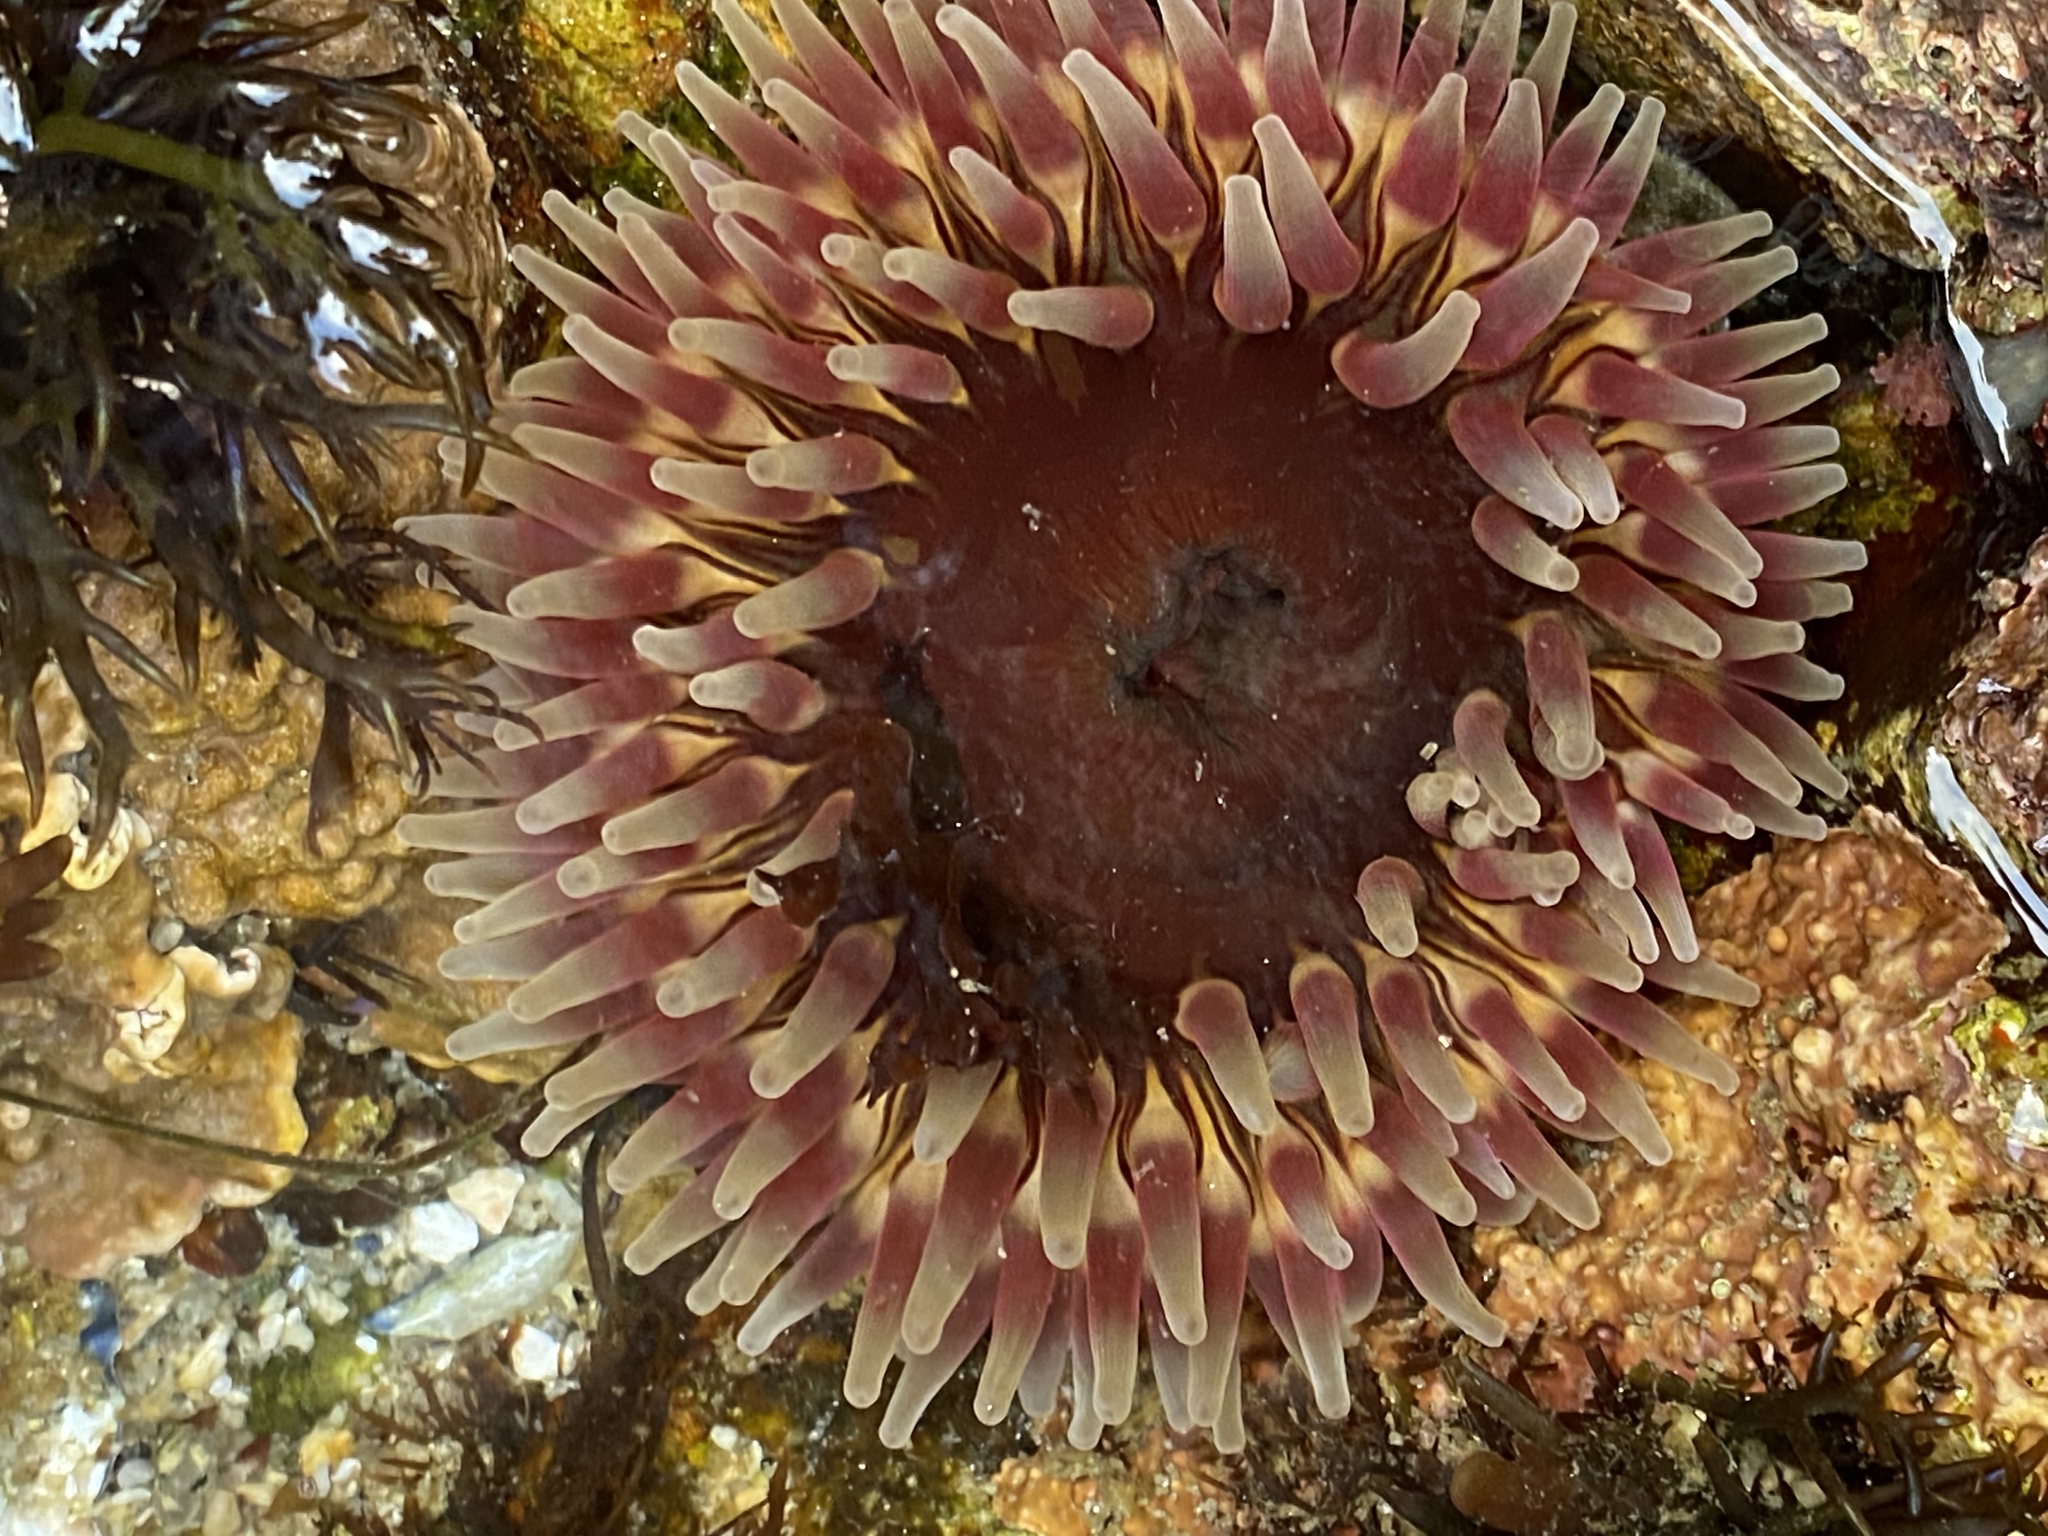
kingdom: Animalia
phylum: Cnidaria
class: Anthozoa
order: Actiniaria
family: Actiniidae
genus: Urticina
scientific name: Urticina clandestina
